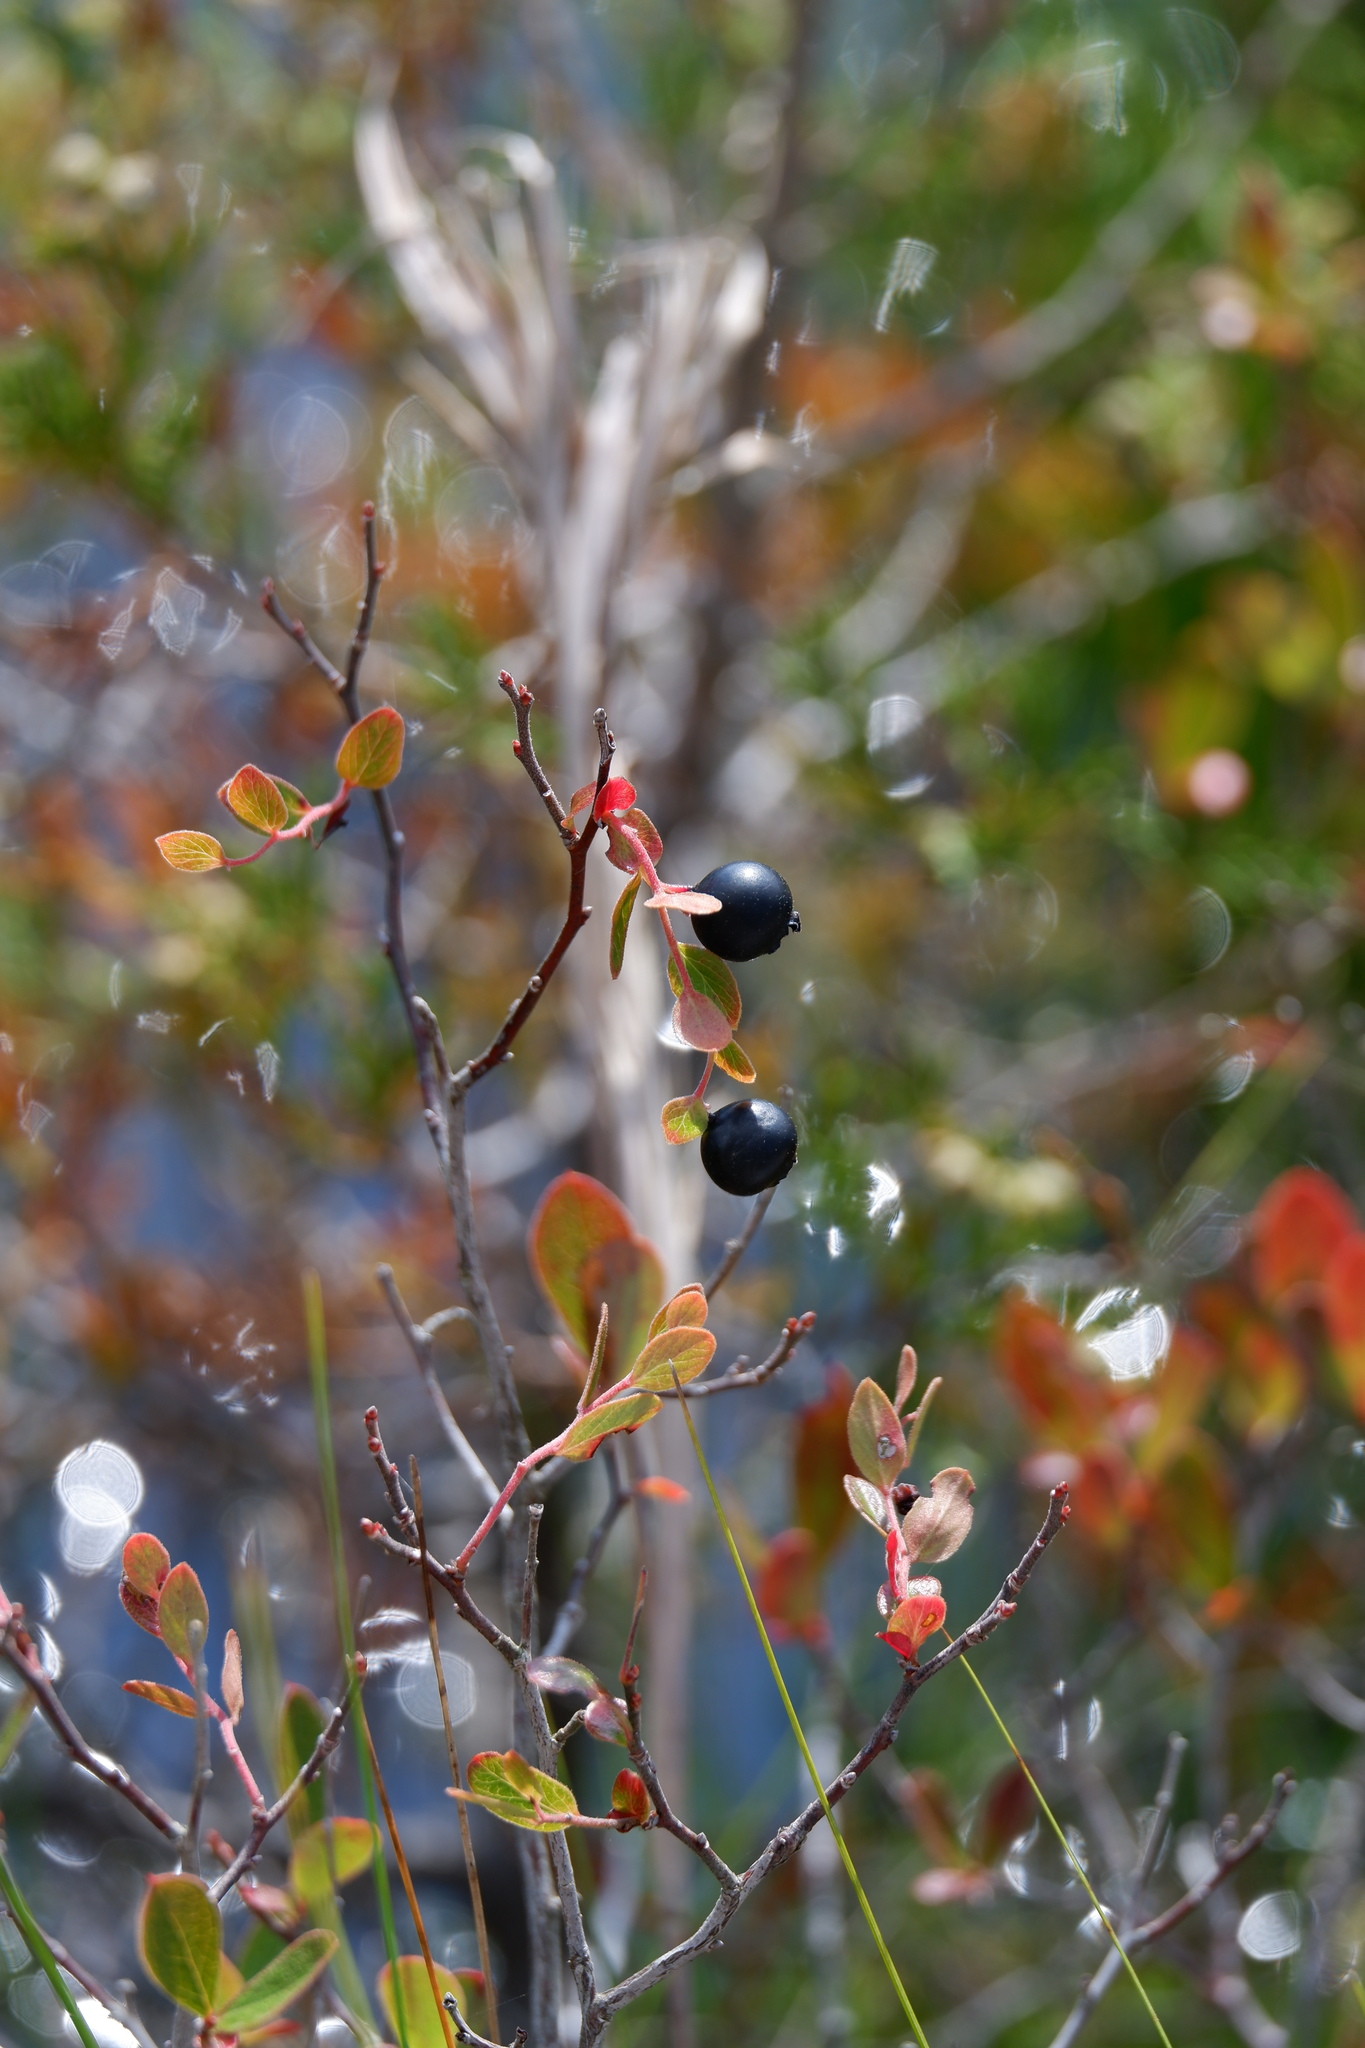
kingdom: Plantae
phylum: Tracheophyta
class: Magnoliopsida
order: Ericales
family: Ericaceae
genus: Gaylussacia
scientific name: Gaylussacia bigeloviana
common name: Bog huckleberry
